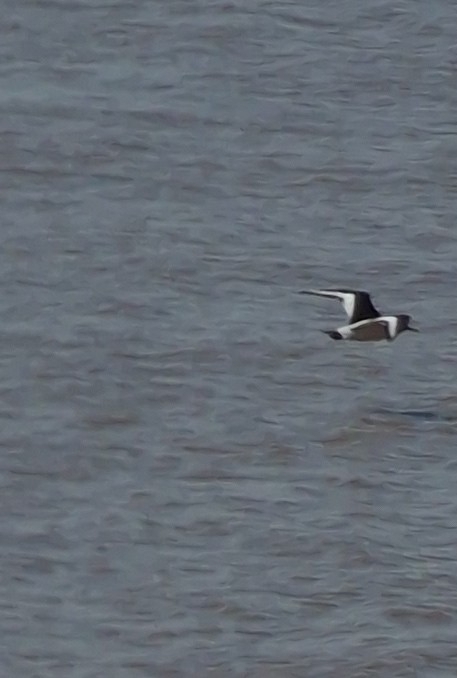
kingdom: Animalia
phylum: Chordata
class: Aves
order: Charadriiformes
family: Haematopodidae
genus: Haematopus
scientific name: Haematopus ostralegus
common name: Eurasian oystercatcher
